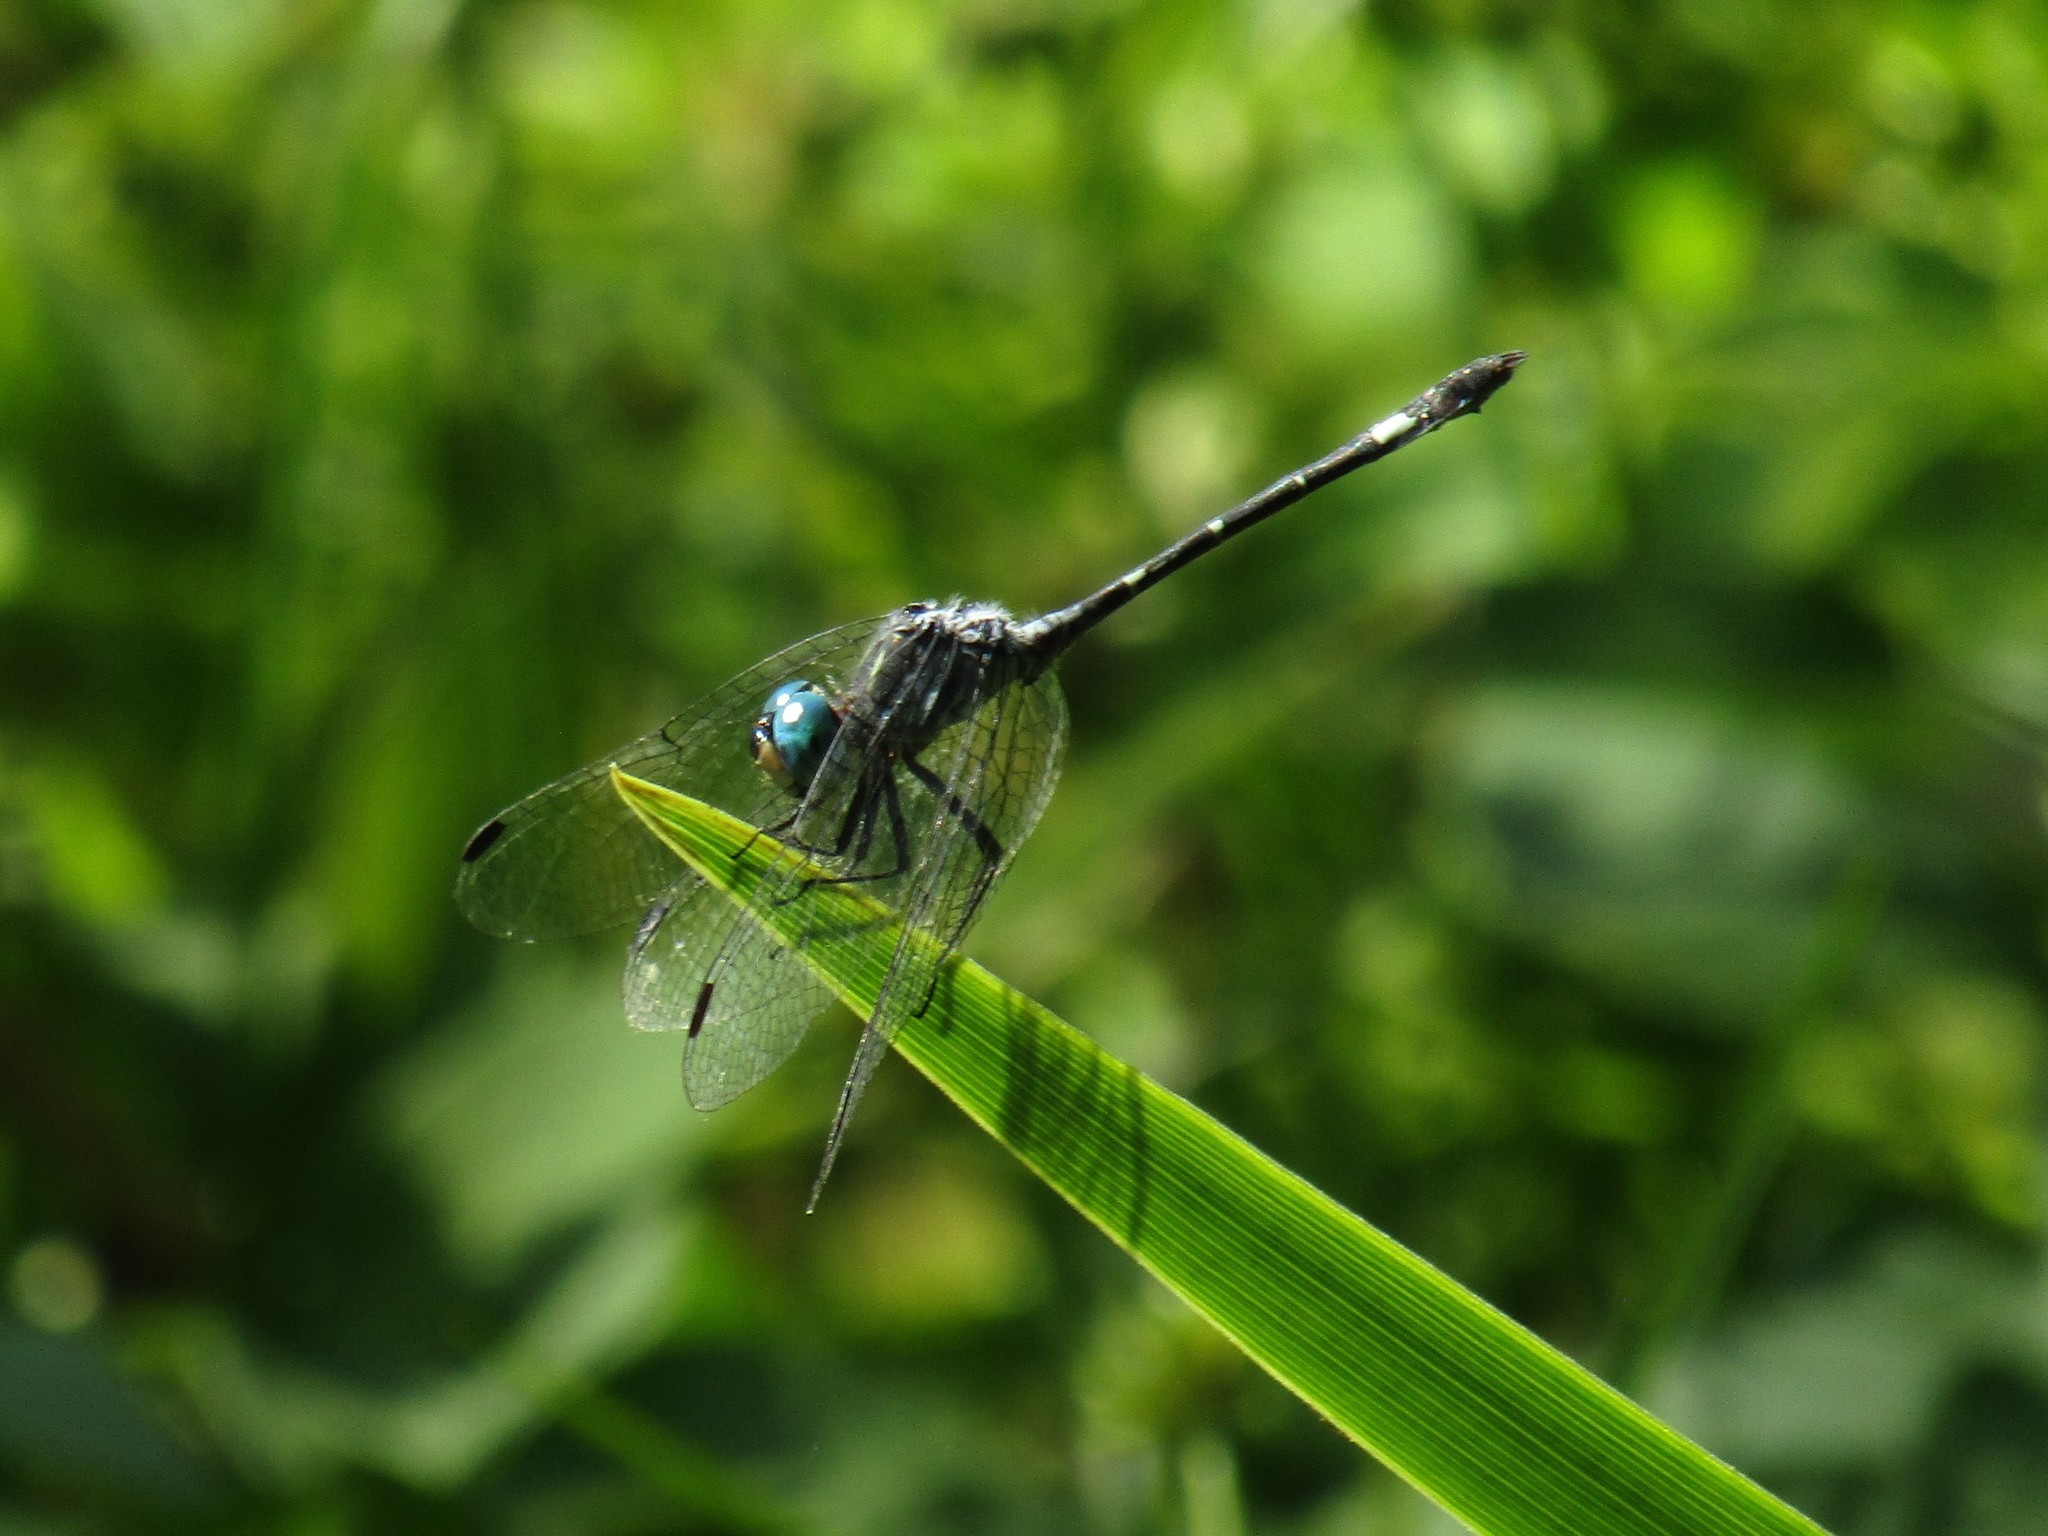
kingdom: Animalia
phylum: Arthropoda
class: Insecta
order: Odonata
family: Libellulidae
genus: Micrathyria
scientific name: Micrathyria hypodidyma
